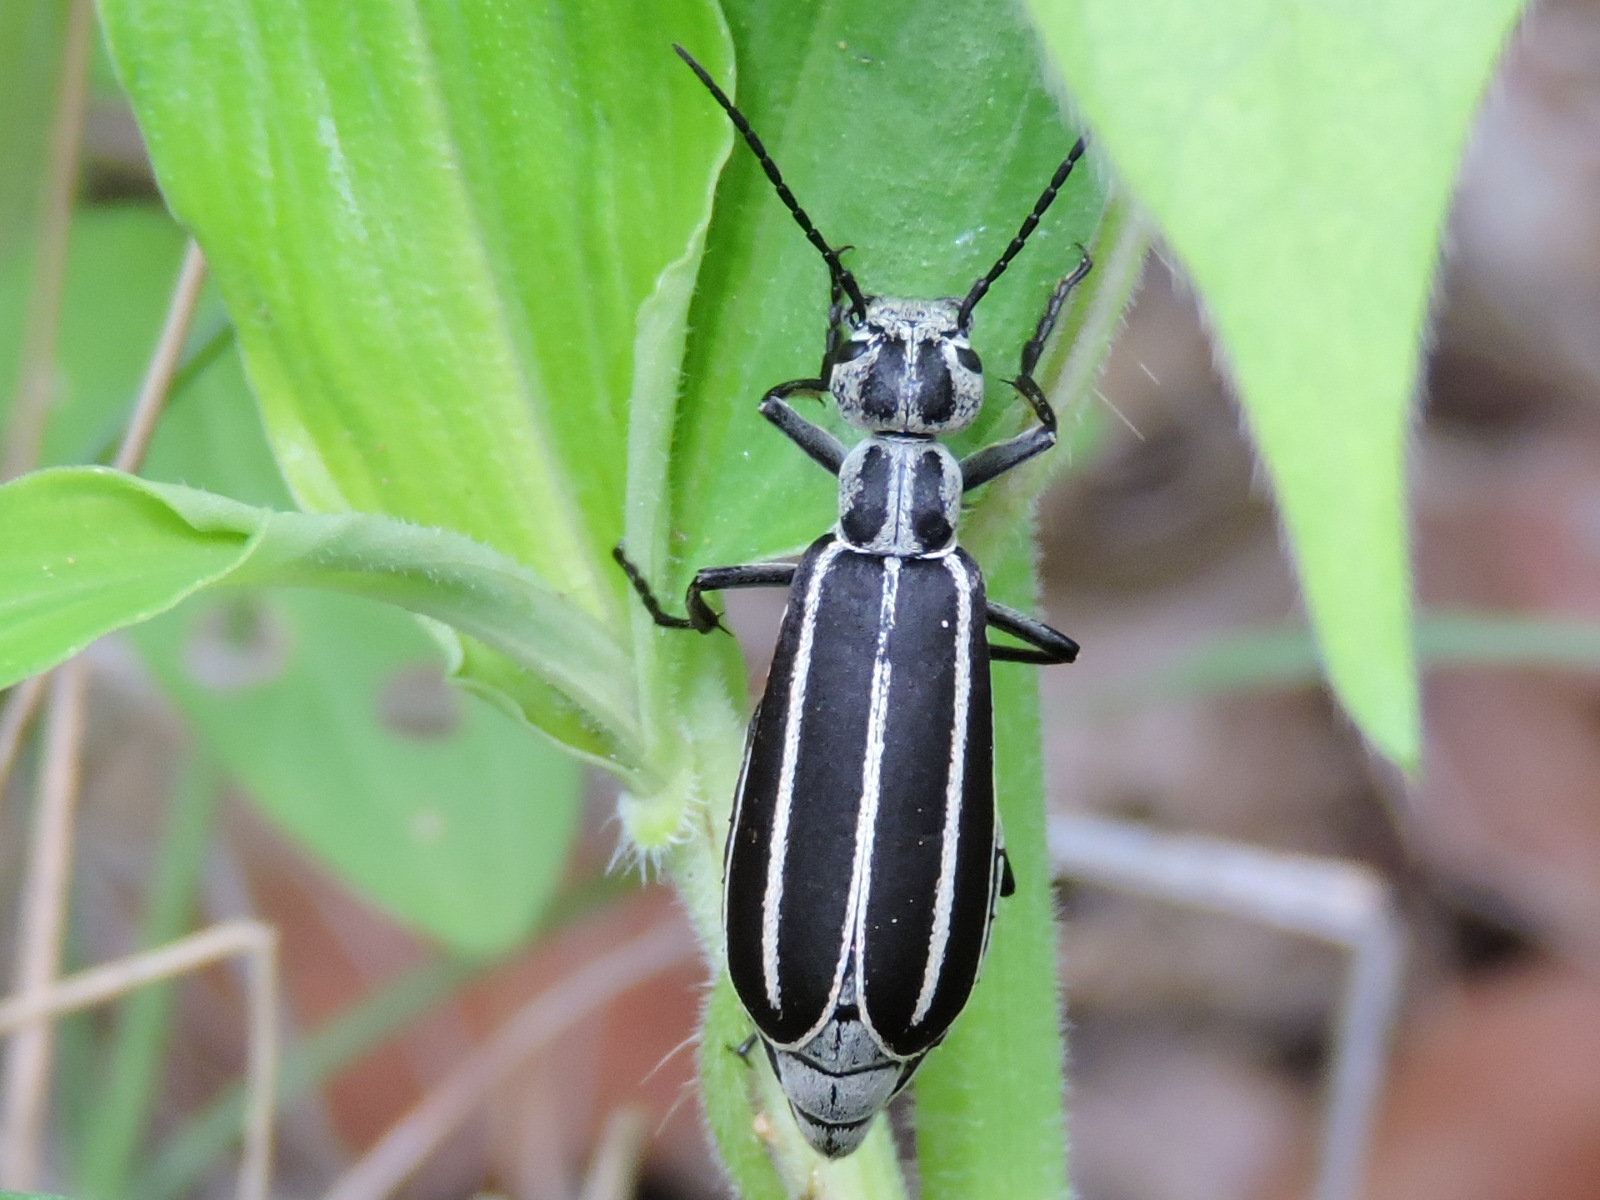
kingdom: Animalia
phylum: Arthropoda
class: Insecta
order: Coleoptera
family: Meloidae
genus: Epicauta
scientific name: Epicauta purpurea
